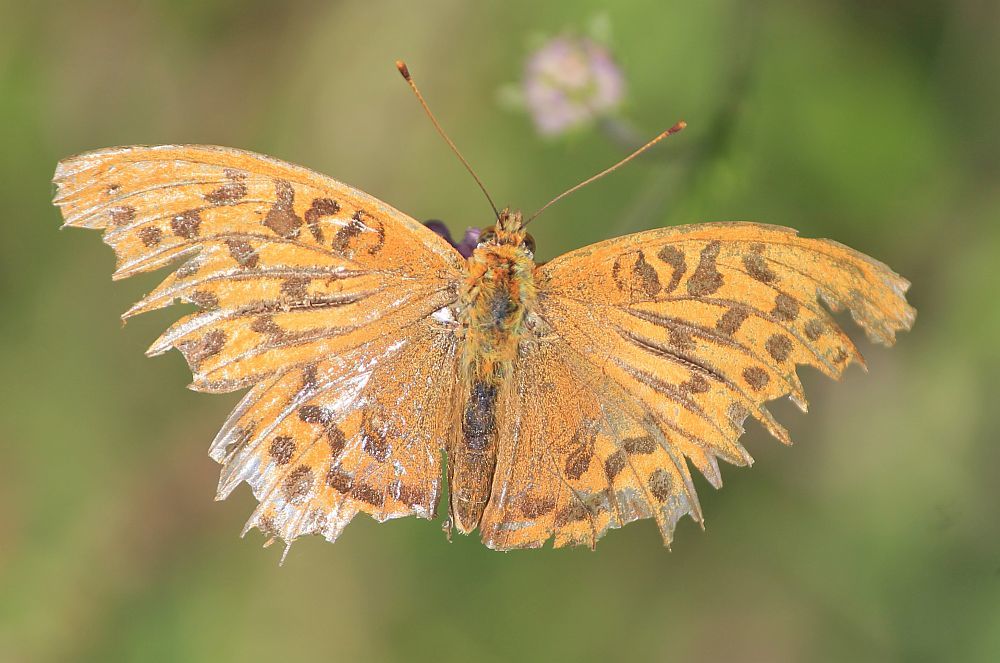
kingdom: Animalia
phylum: Arthropoda
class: Insecta
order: Lepidoptera
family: Nymphalidae
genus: Argynnis
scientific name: Argynnis paphia
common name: Silver-washed fritillary
